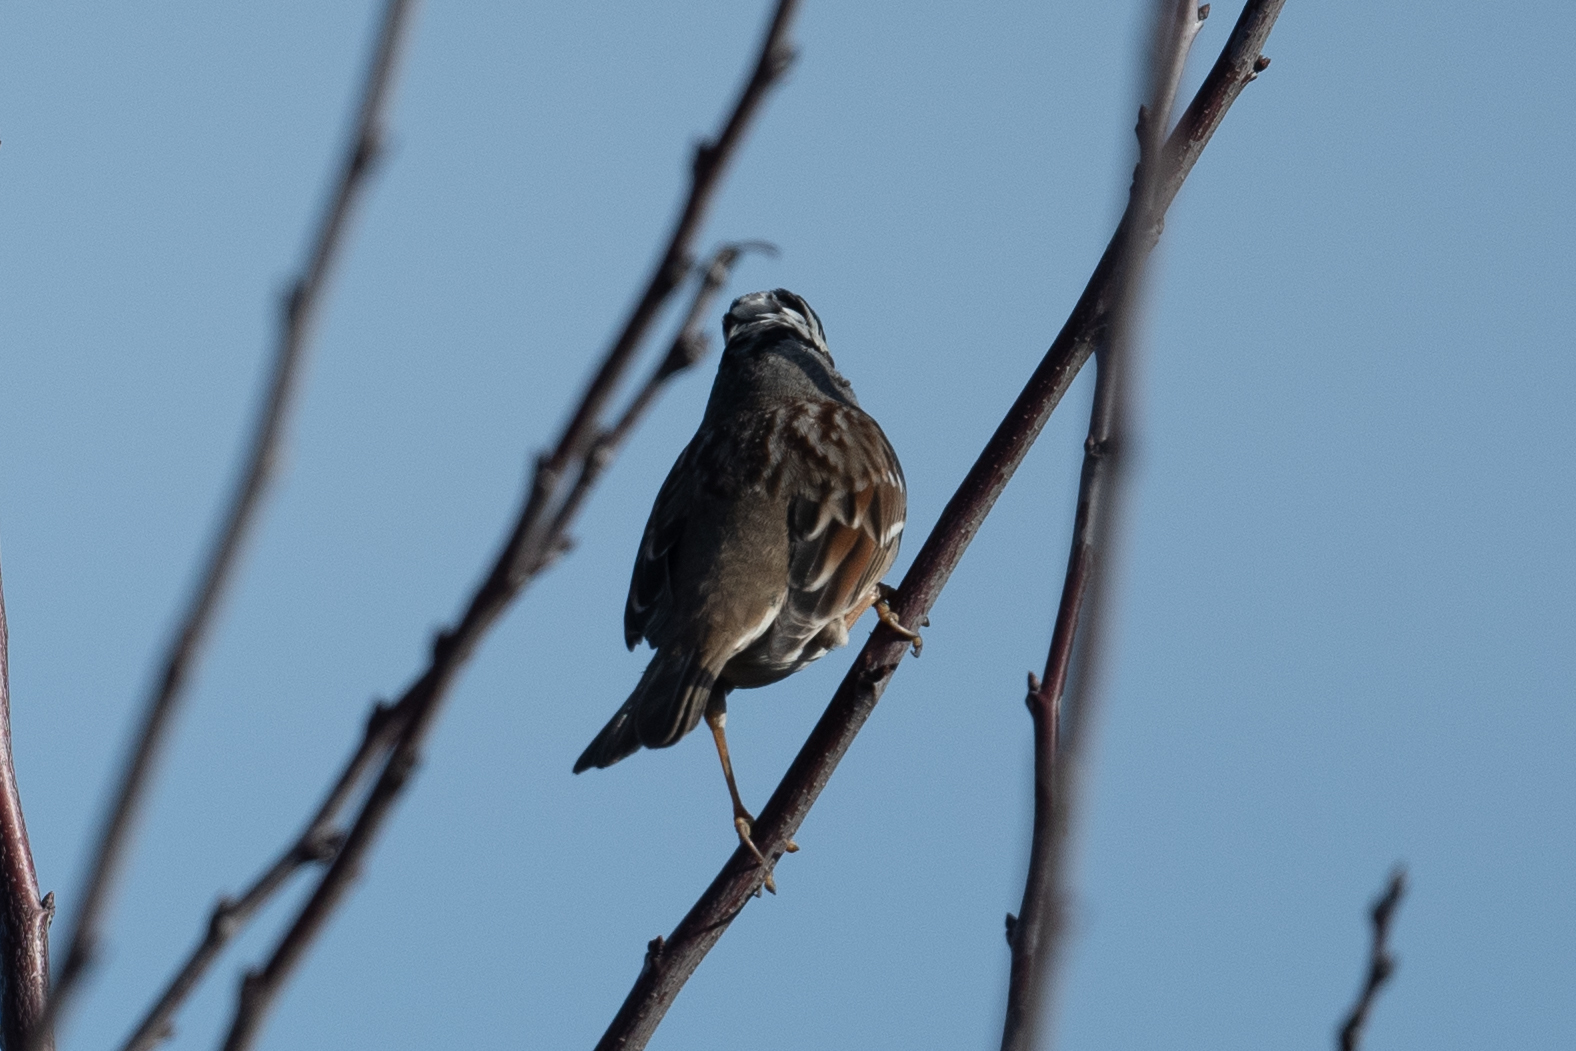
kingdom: Animalia
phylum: Chordata
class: Aves
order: Passeriformes
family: Passerellidae
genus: Zonotrichia
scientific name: Zonotrichia leucophrys
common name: White-crowned sparrow
